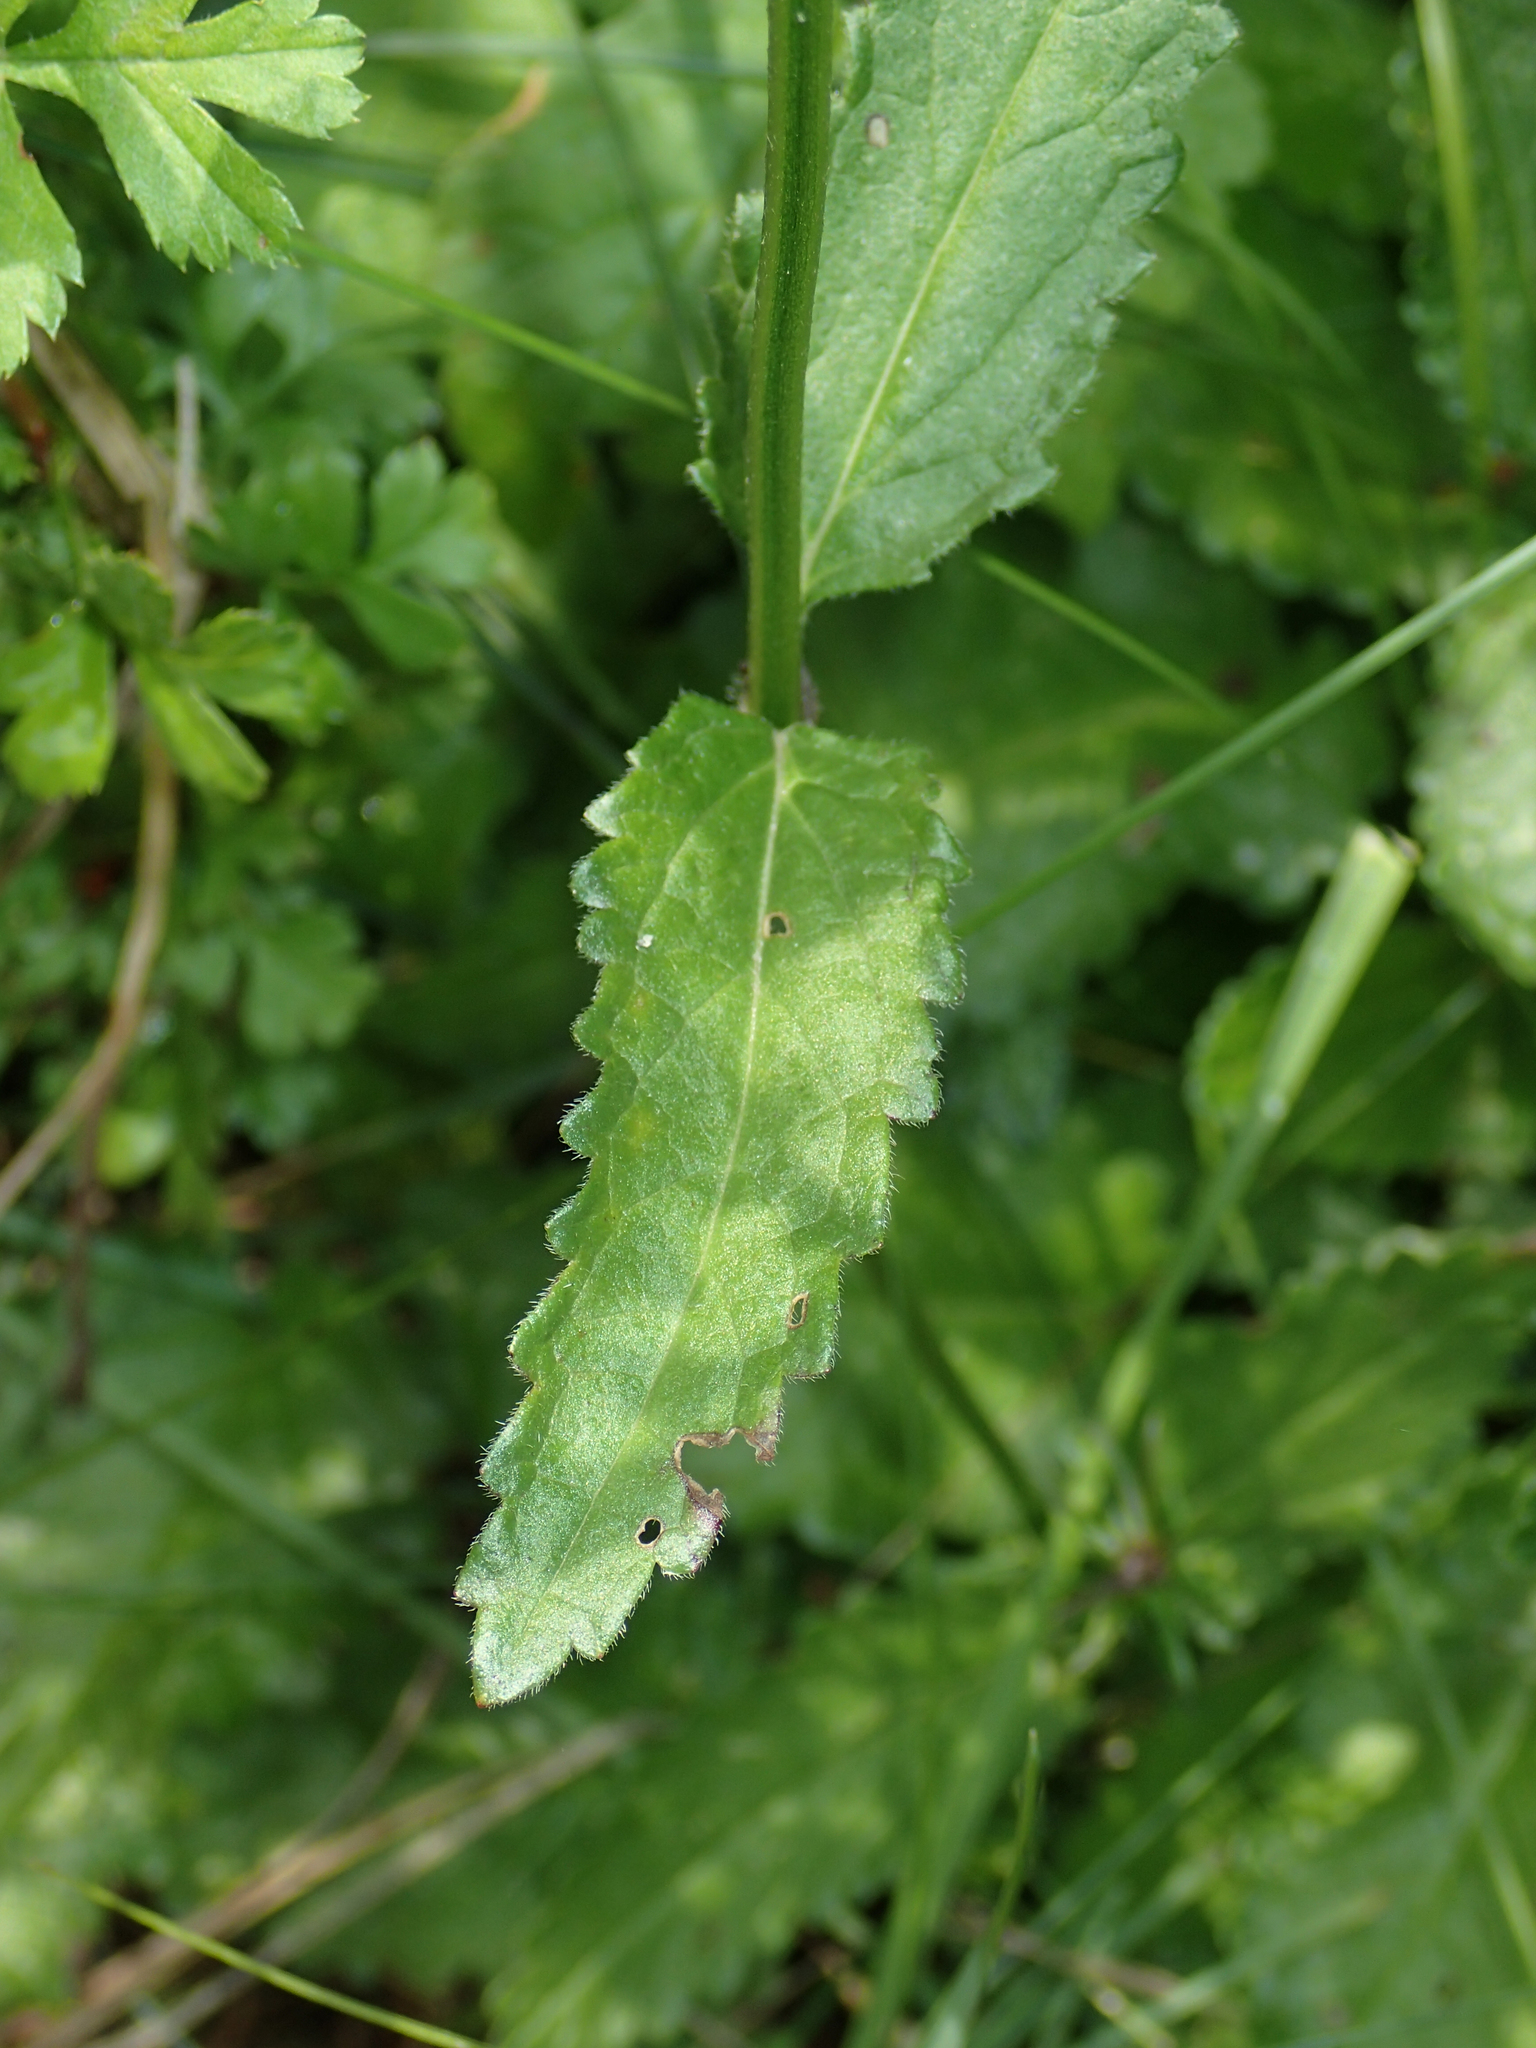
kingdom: Plantae
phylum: Tracheophyta
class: Magnoliopsida
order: Lamiales
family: Lamiaceae
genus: Betonica
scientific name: Betonica officinalis
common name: Bishop's-wort
